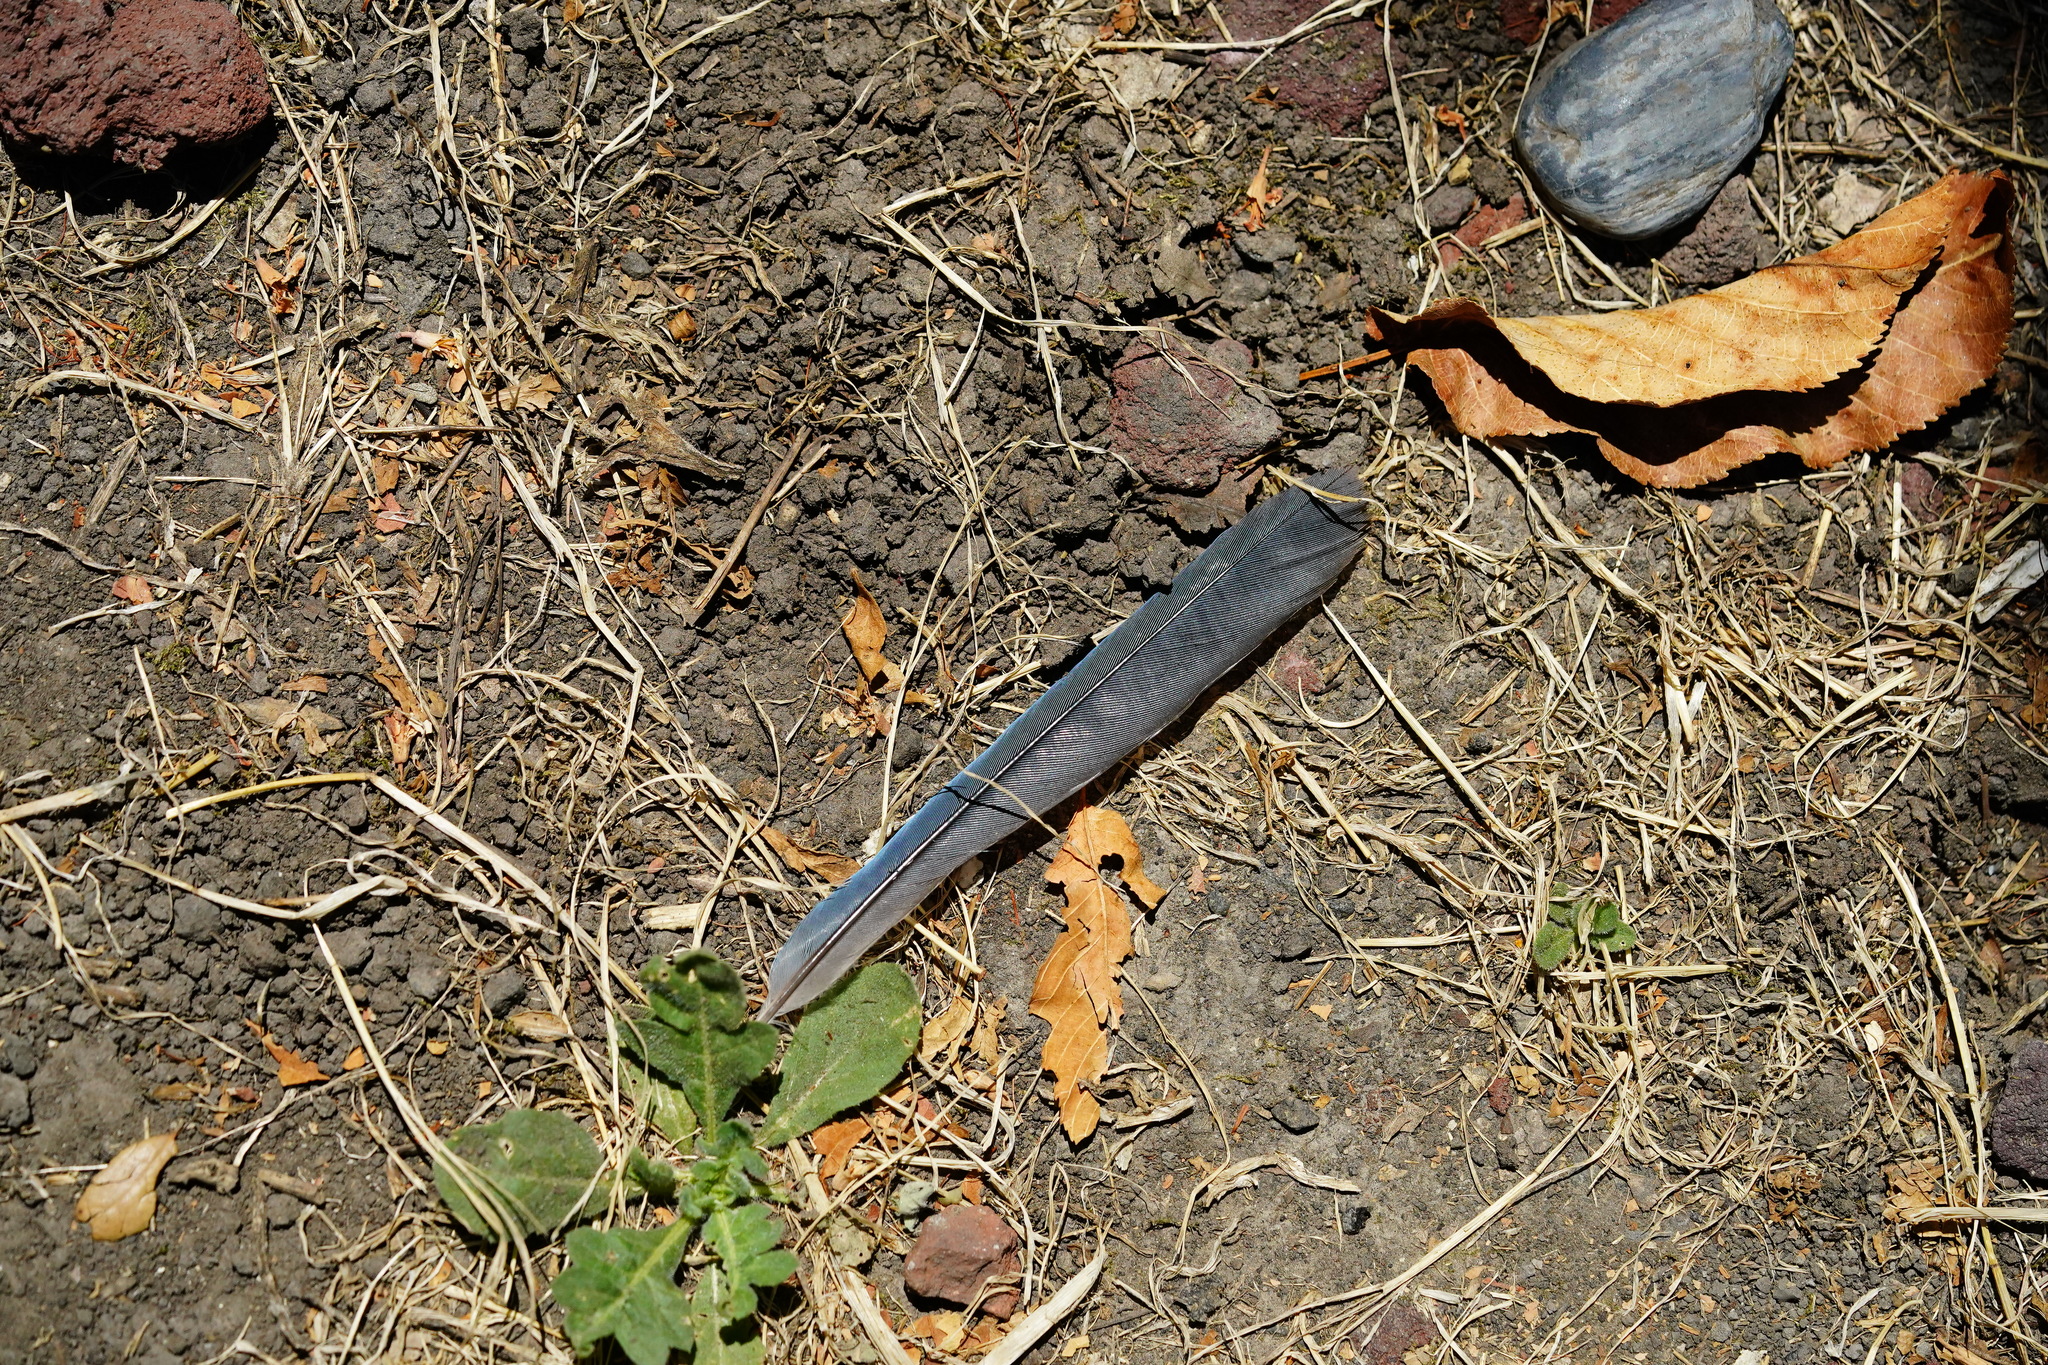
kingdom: Animalia
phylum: Chordata
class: Aves
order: Passeriformes
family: Corvidae
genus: Aphelocoma
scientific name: Aphelocoma californica
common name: California scrub-jay
